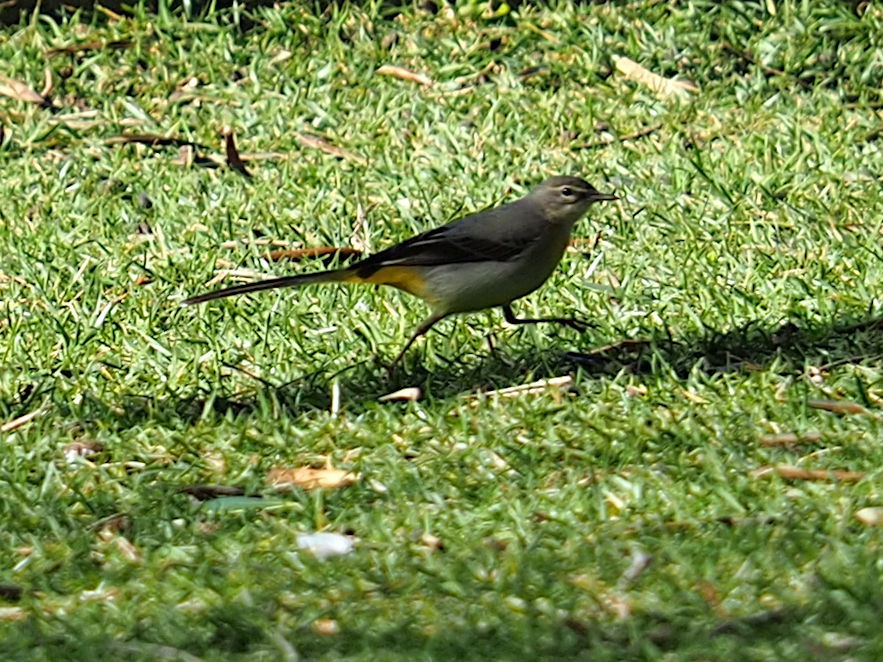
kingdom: Animalia
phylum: Chordata
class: Aves
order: Passeriformes
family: Motacillidae
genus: Motacilla
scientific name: Motacilla cinerea
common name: Grey wagtail
